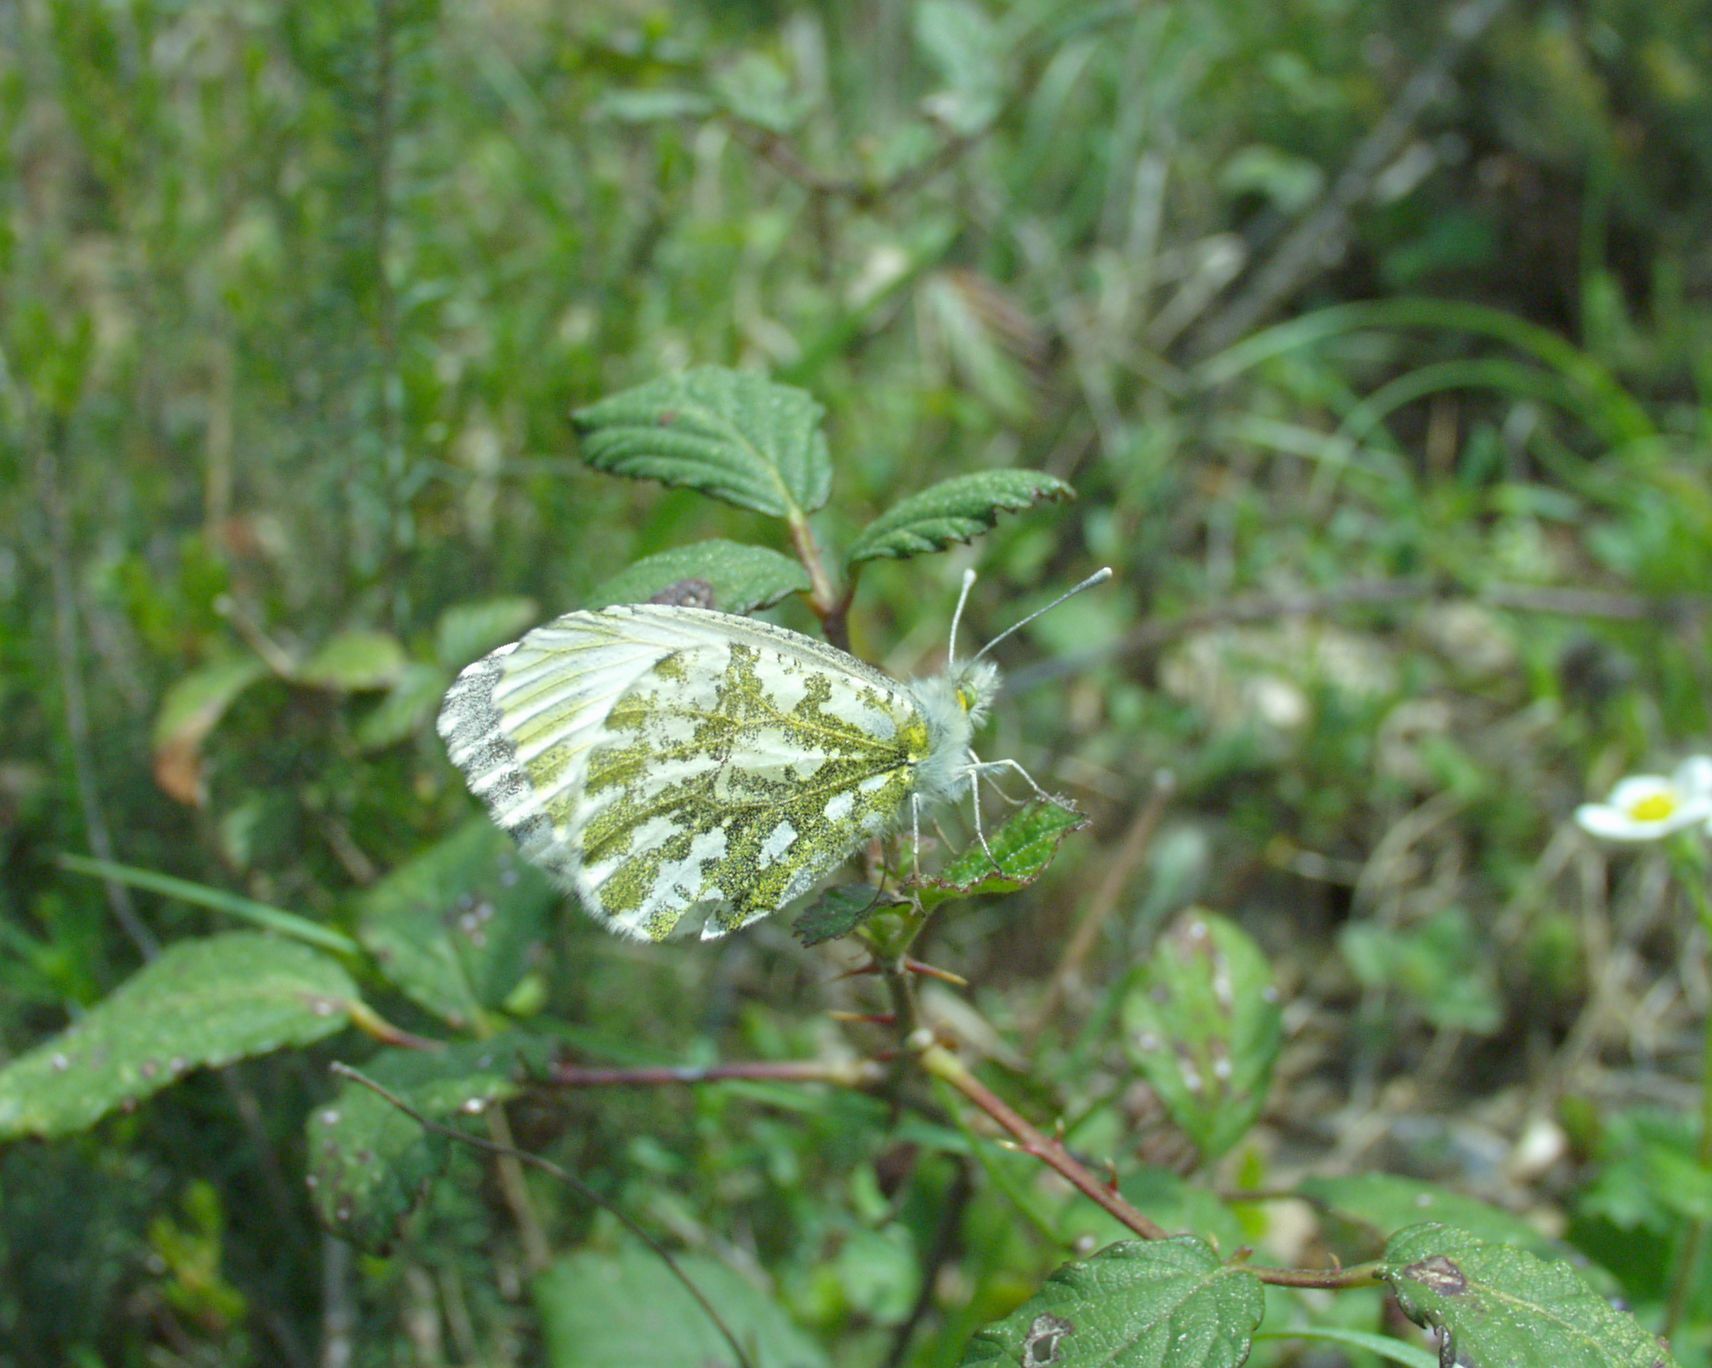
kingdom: Animalia
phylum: Arthropoda
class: Insecta
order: Lepidoptera
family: Pieridae
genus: Anthocharis
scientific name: Anthocharis cardamines
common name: Orange-tip
